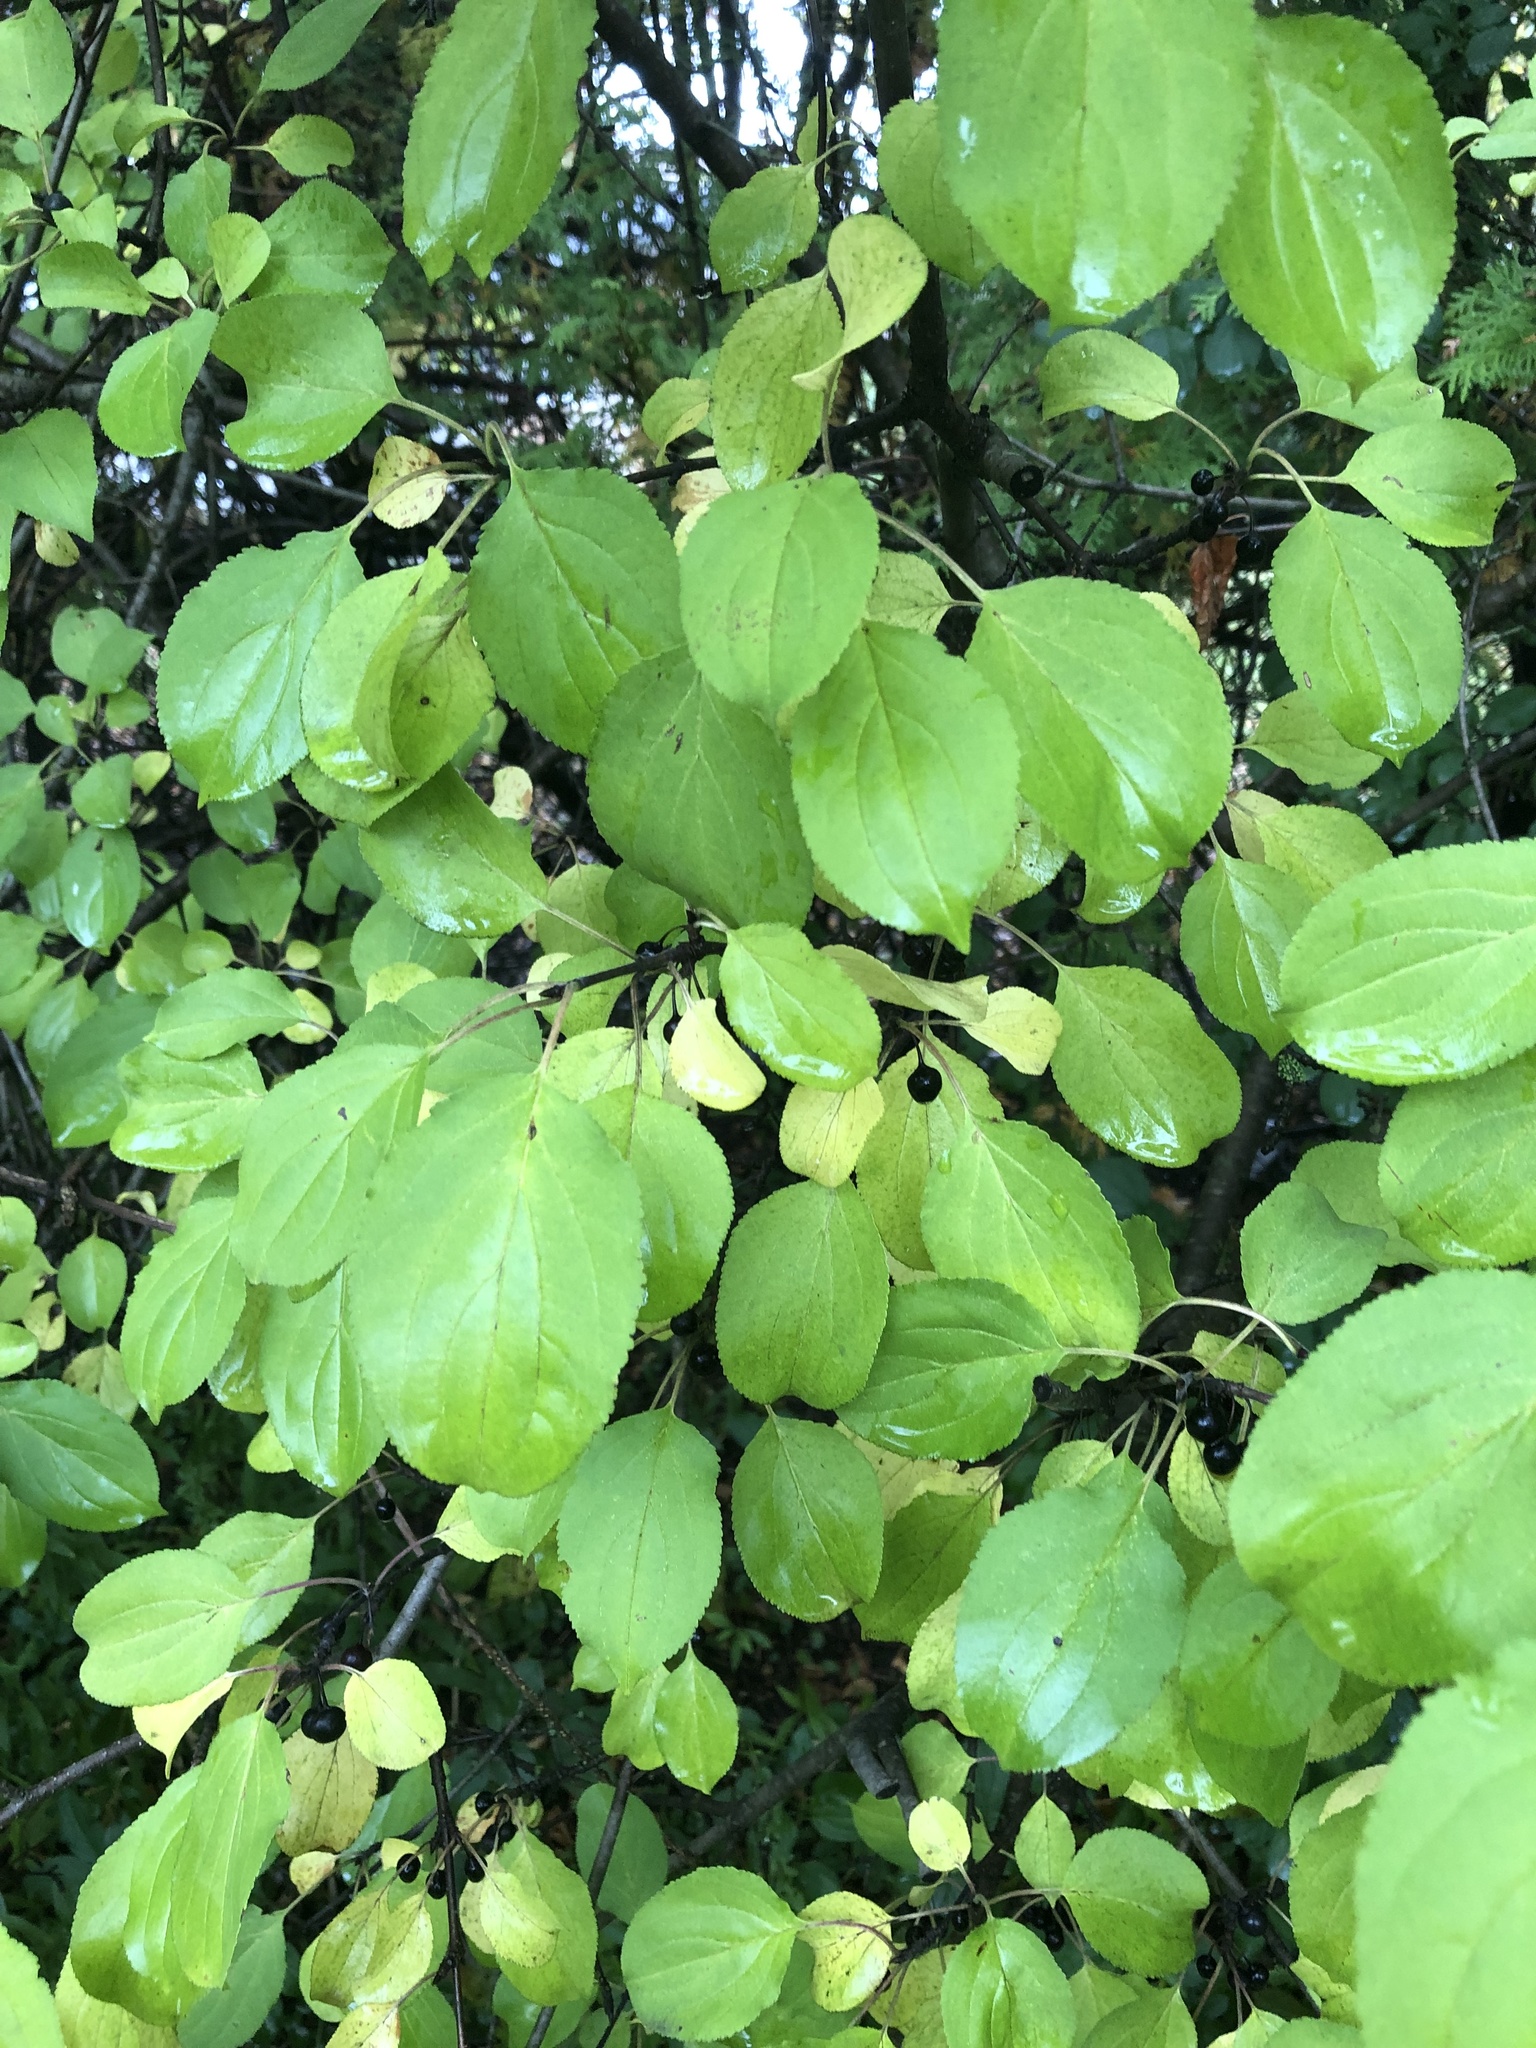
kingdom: Plantae
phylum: Tracheophyta
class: Magnoliopsida
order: Rosales
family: Rhamnaceae
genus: Rhamnus
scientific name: Rhamnus cathartica
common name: Common buckthorn
